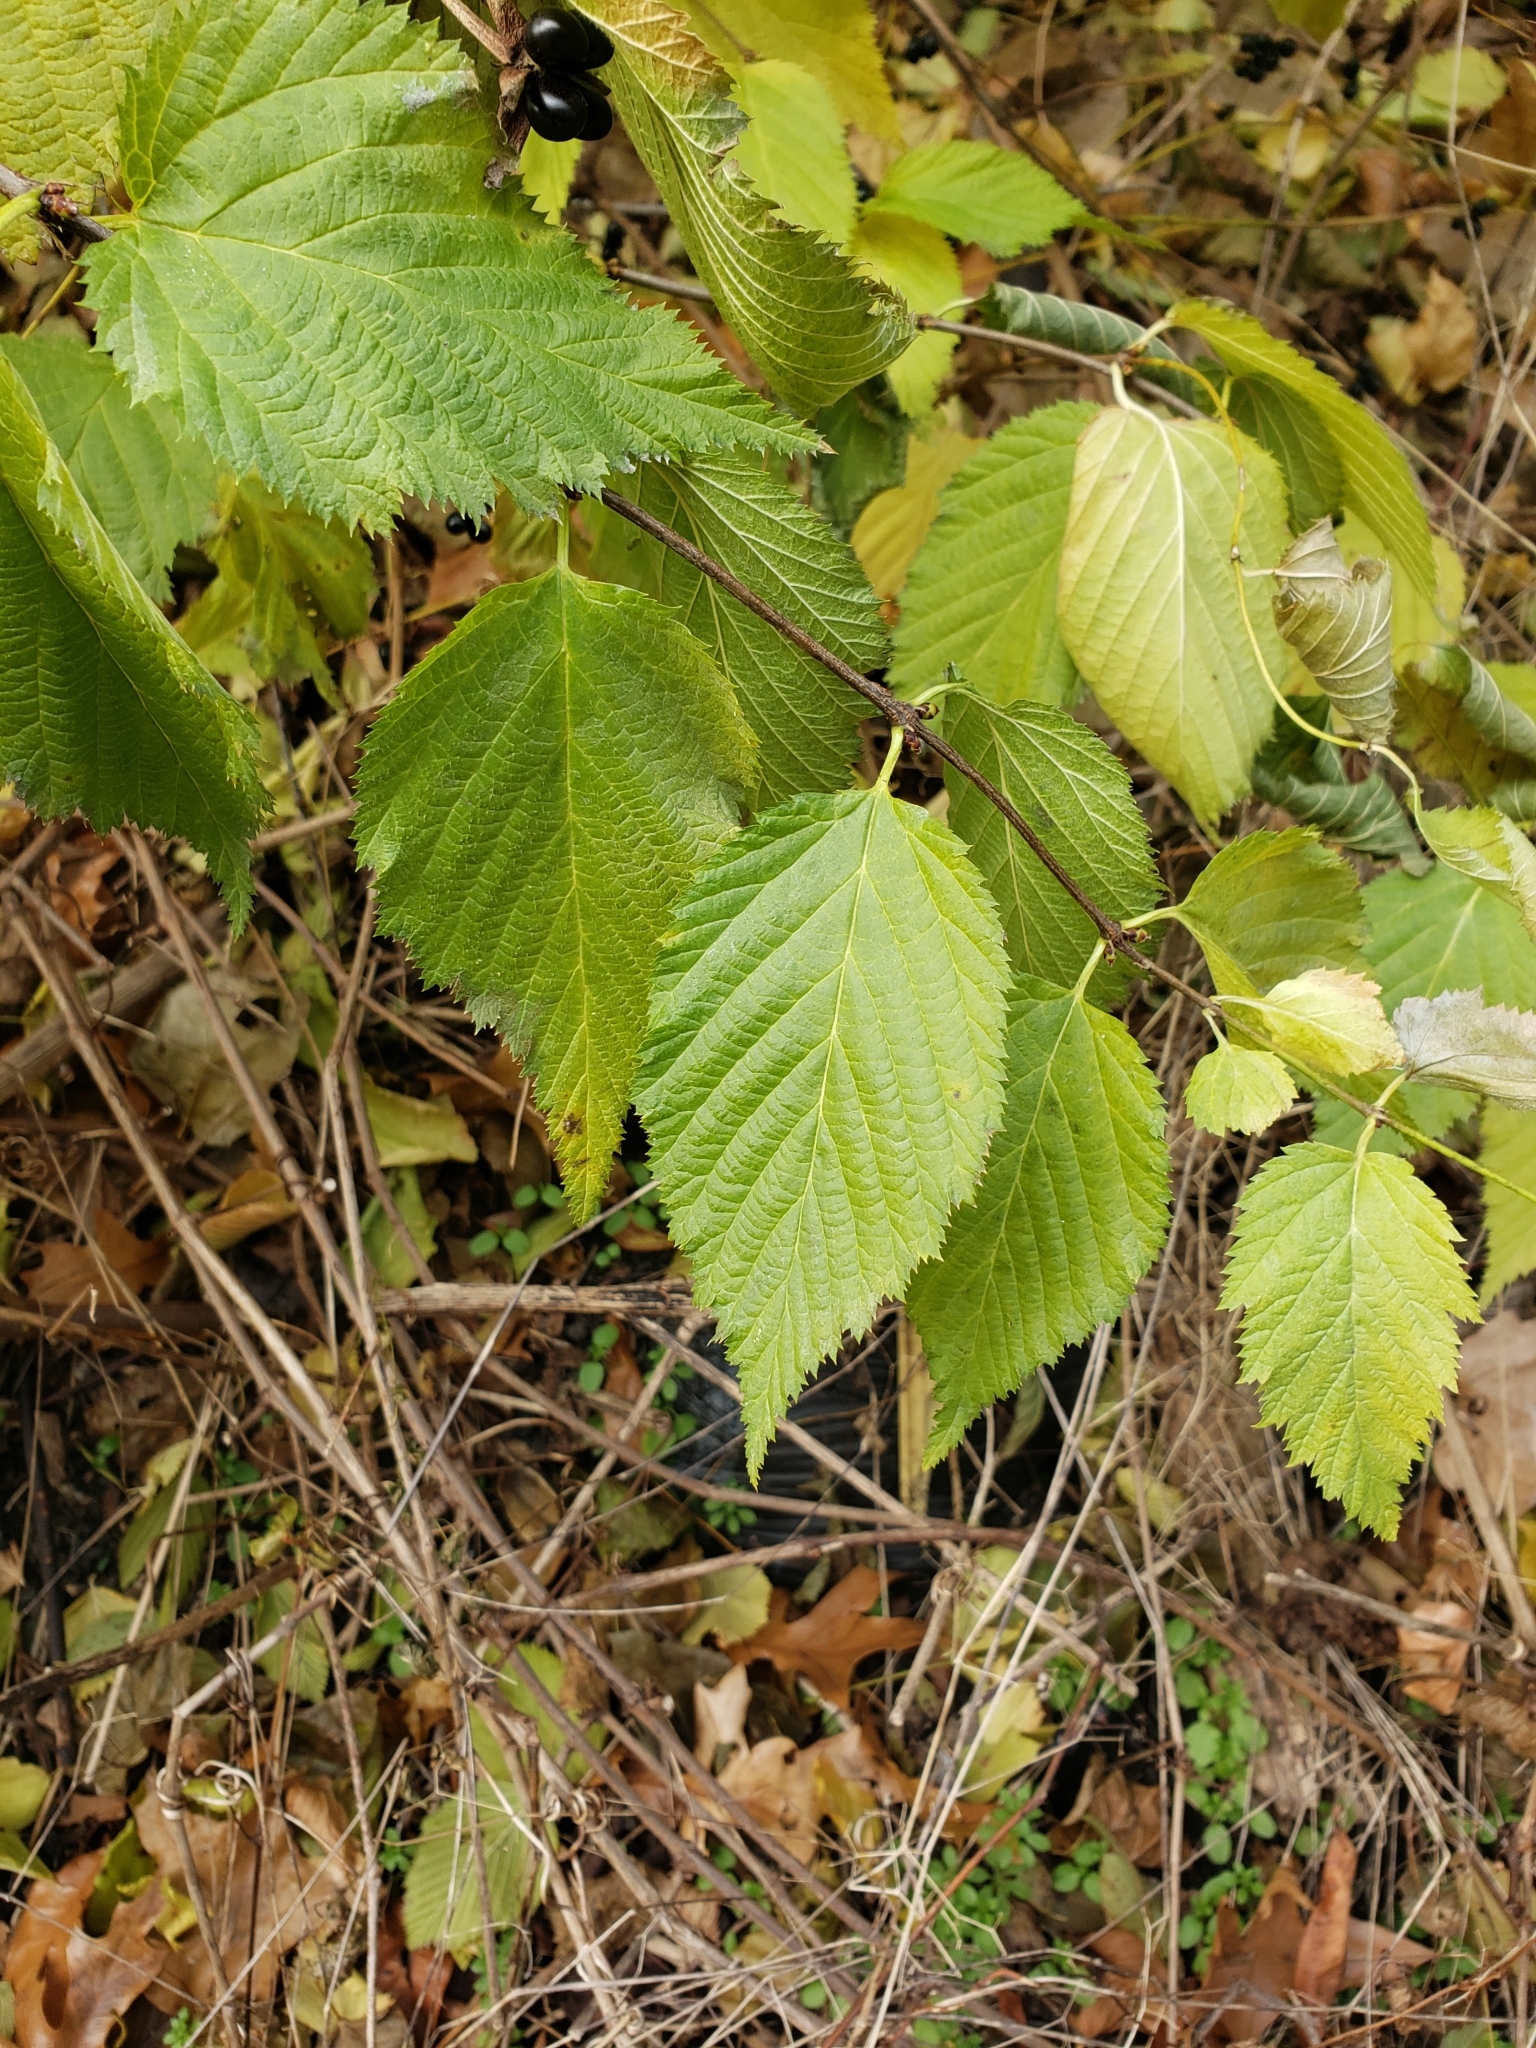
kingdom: Plantae
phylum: Tracheophyta
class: Magnoliopsida
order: Rosales
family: Rosaceae
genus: Rhodotypos
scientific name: Rhodotypos scandens
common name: Jetbead
